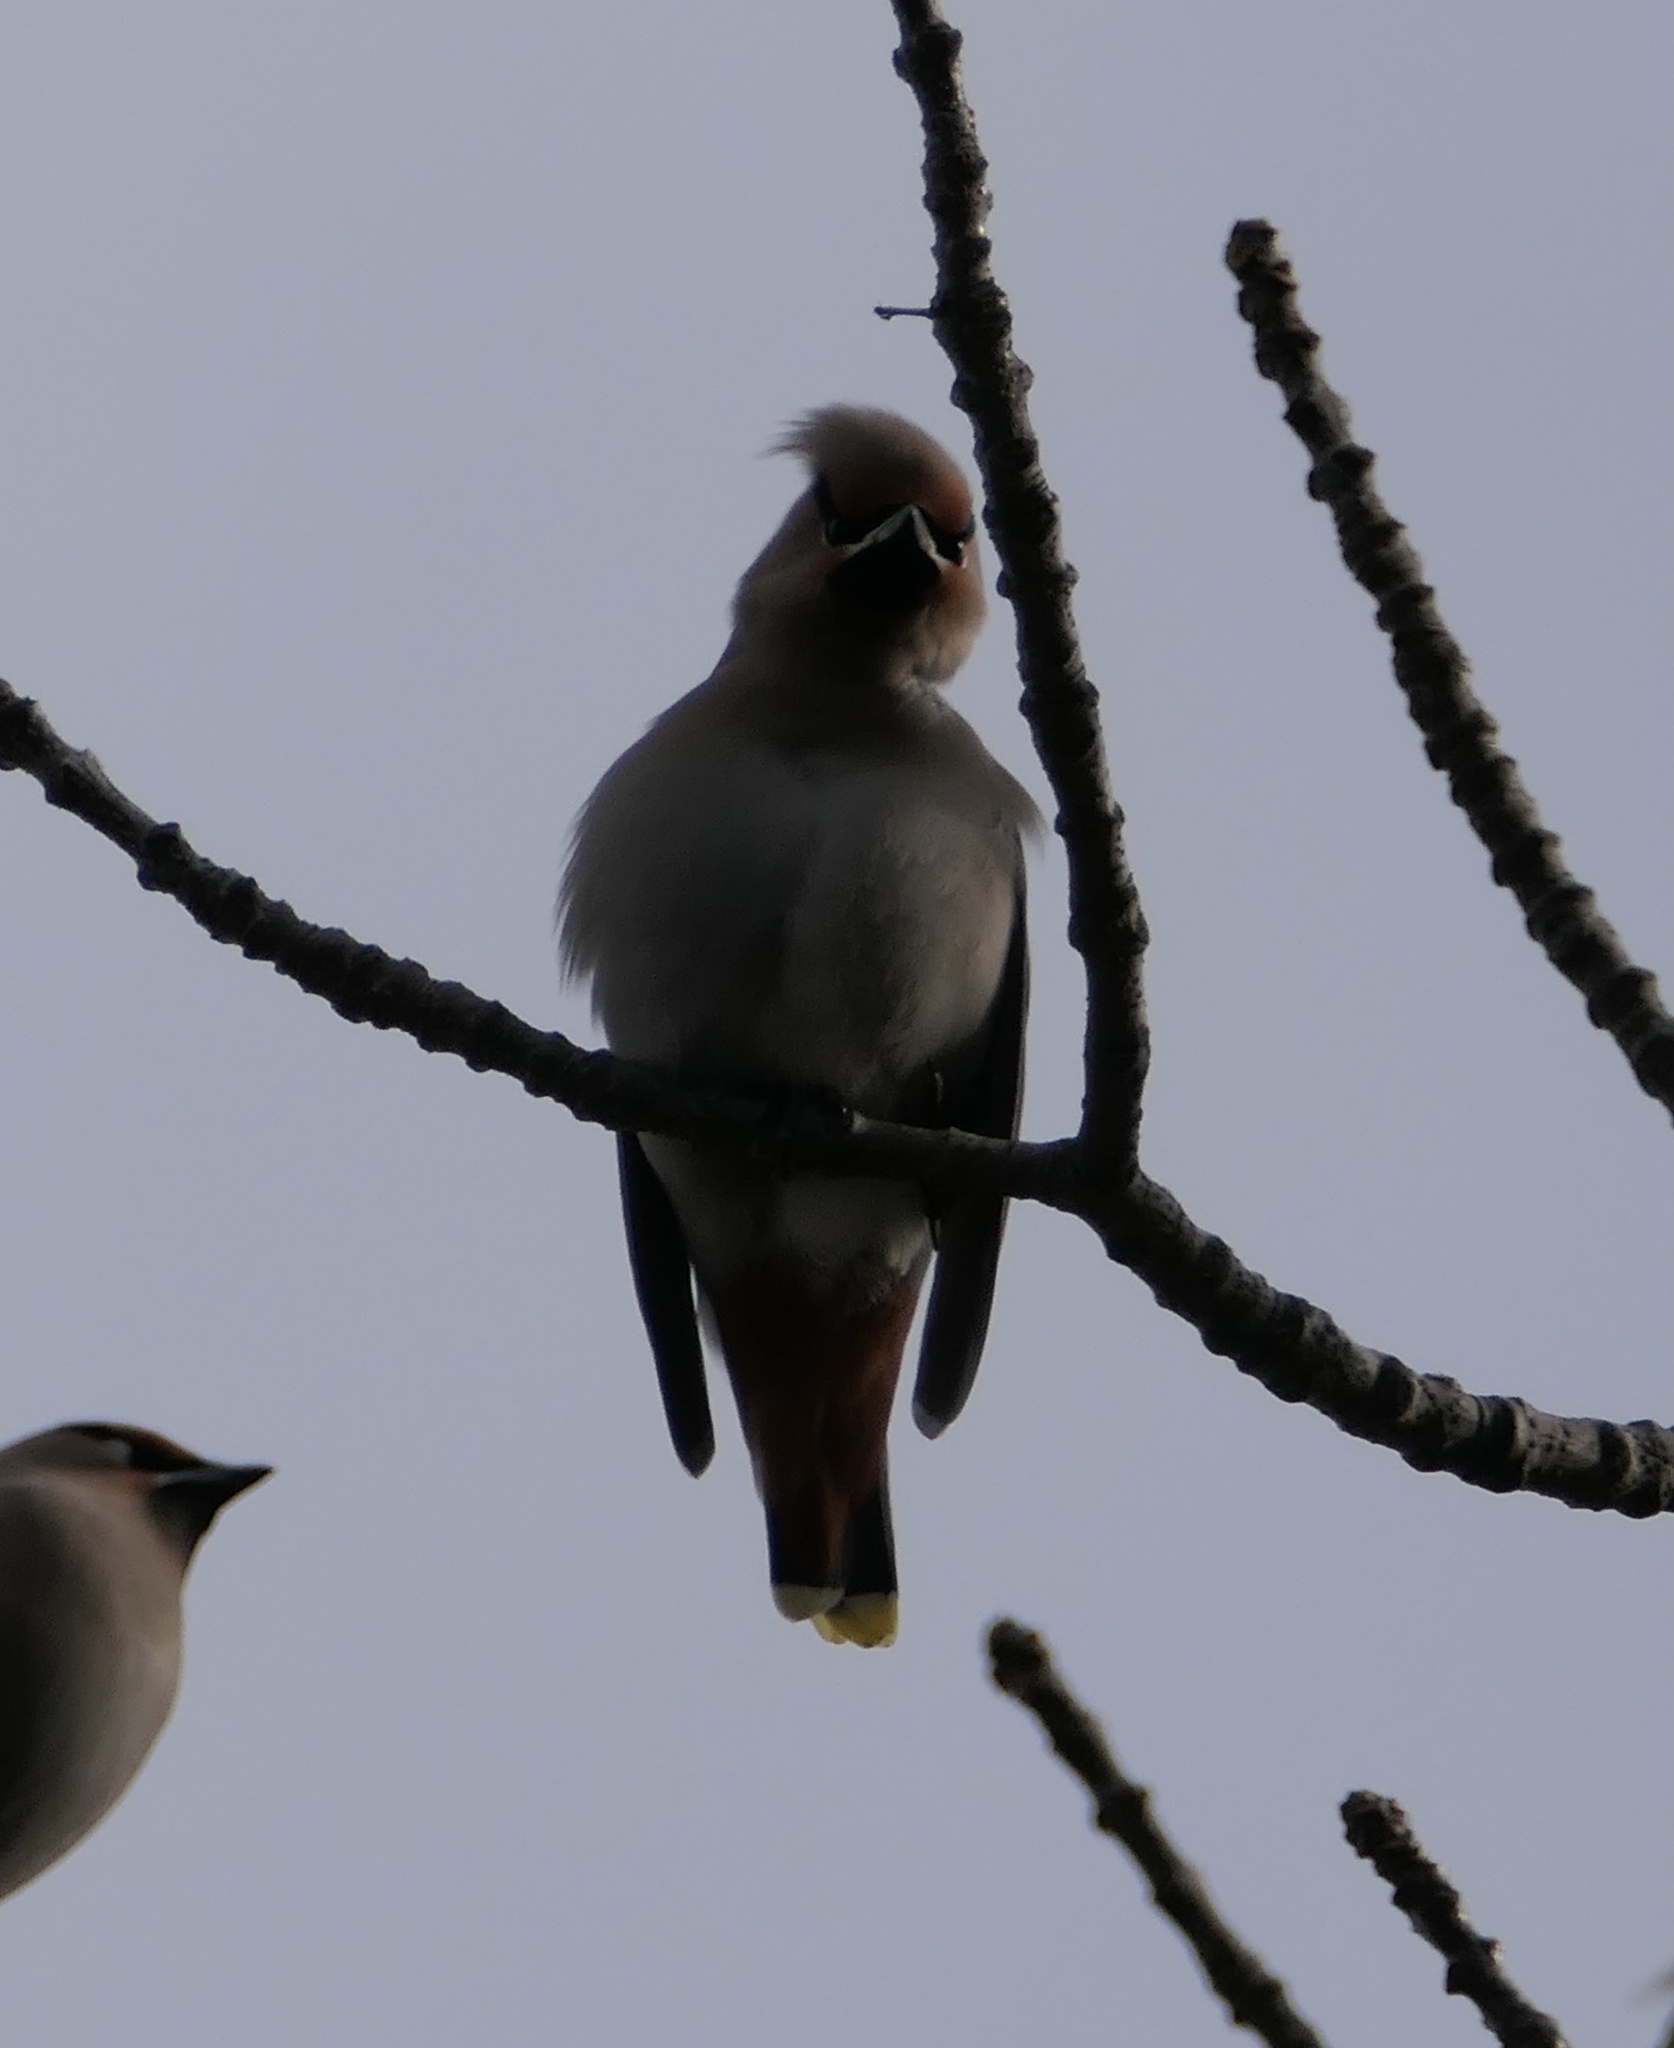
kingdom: Animalia
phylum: Chordata
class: Aves
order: Passeriformes
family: Bombycillidae
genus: Bombycilla
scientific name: Bombycilla garrulus
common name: Bohemian waxwing
